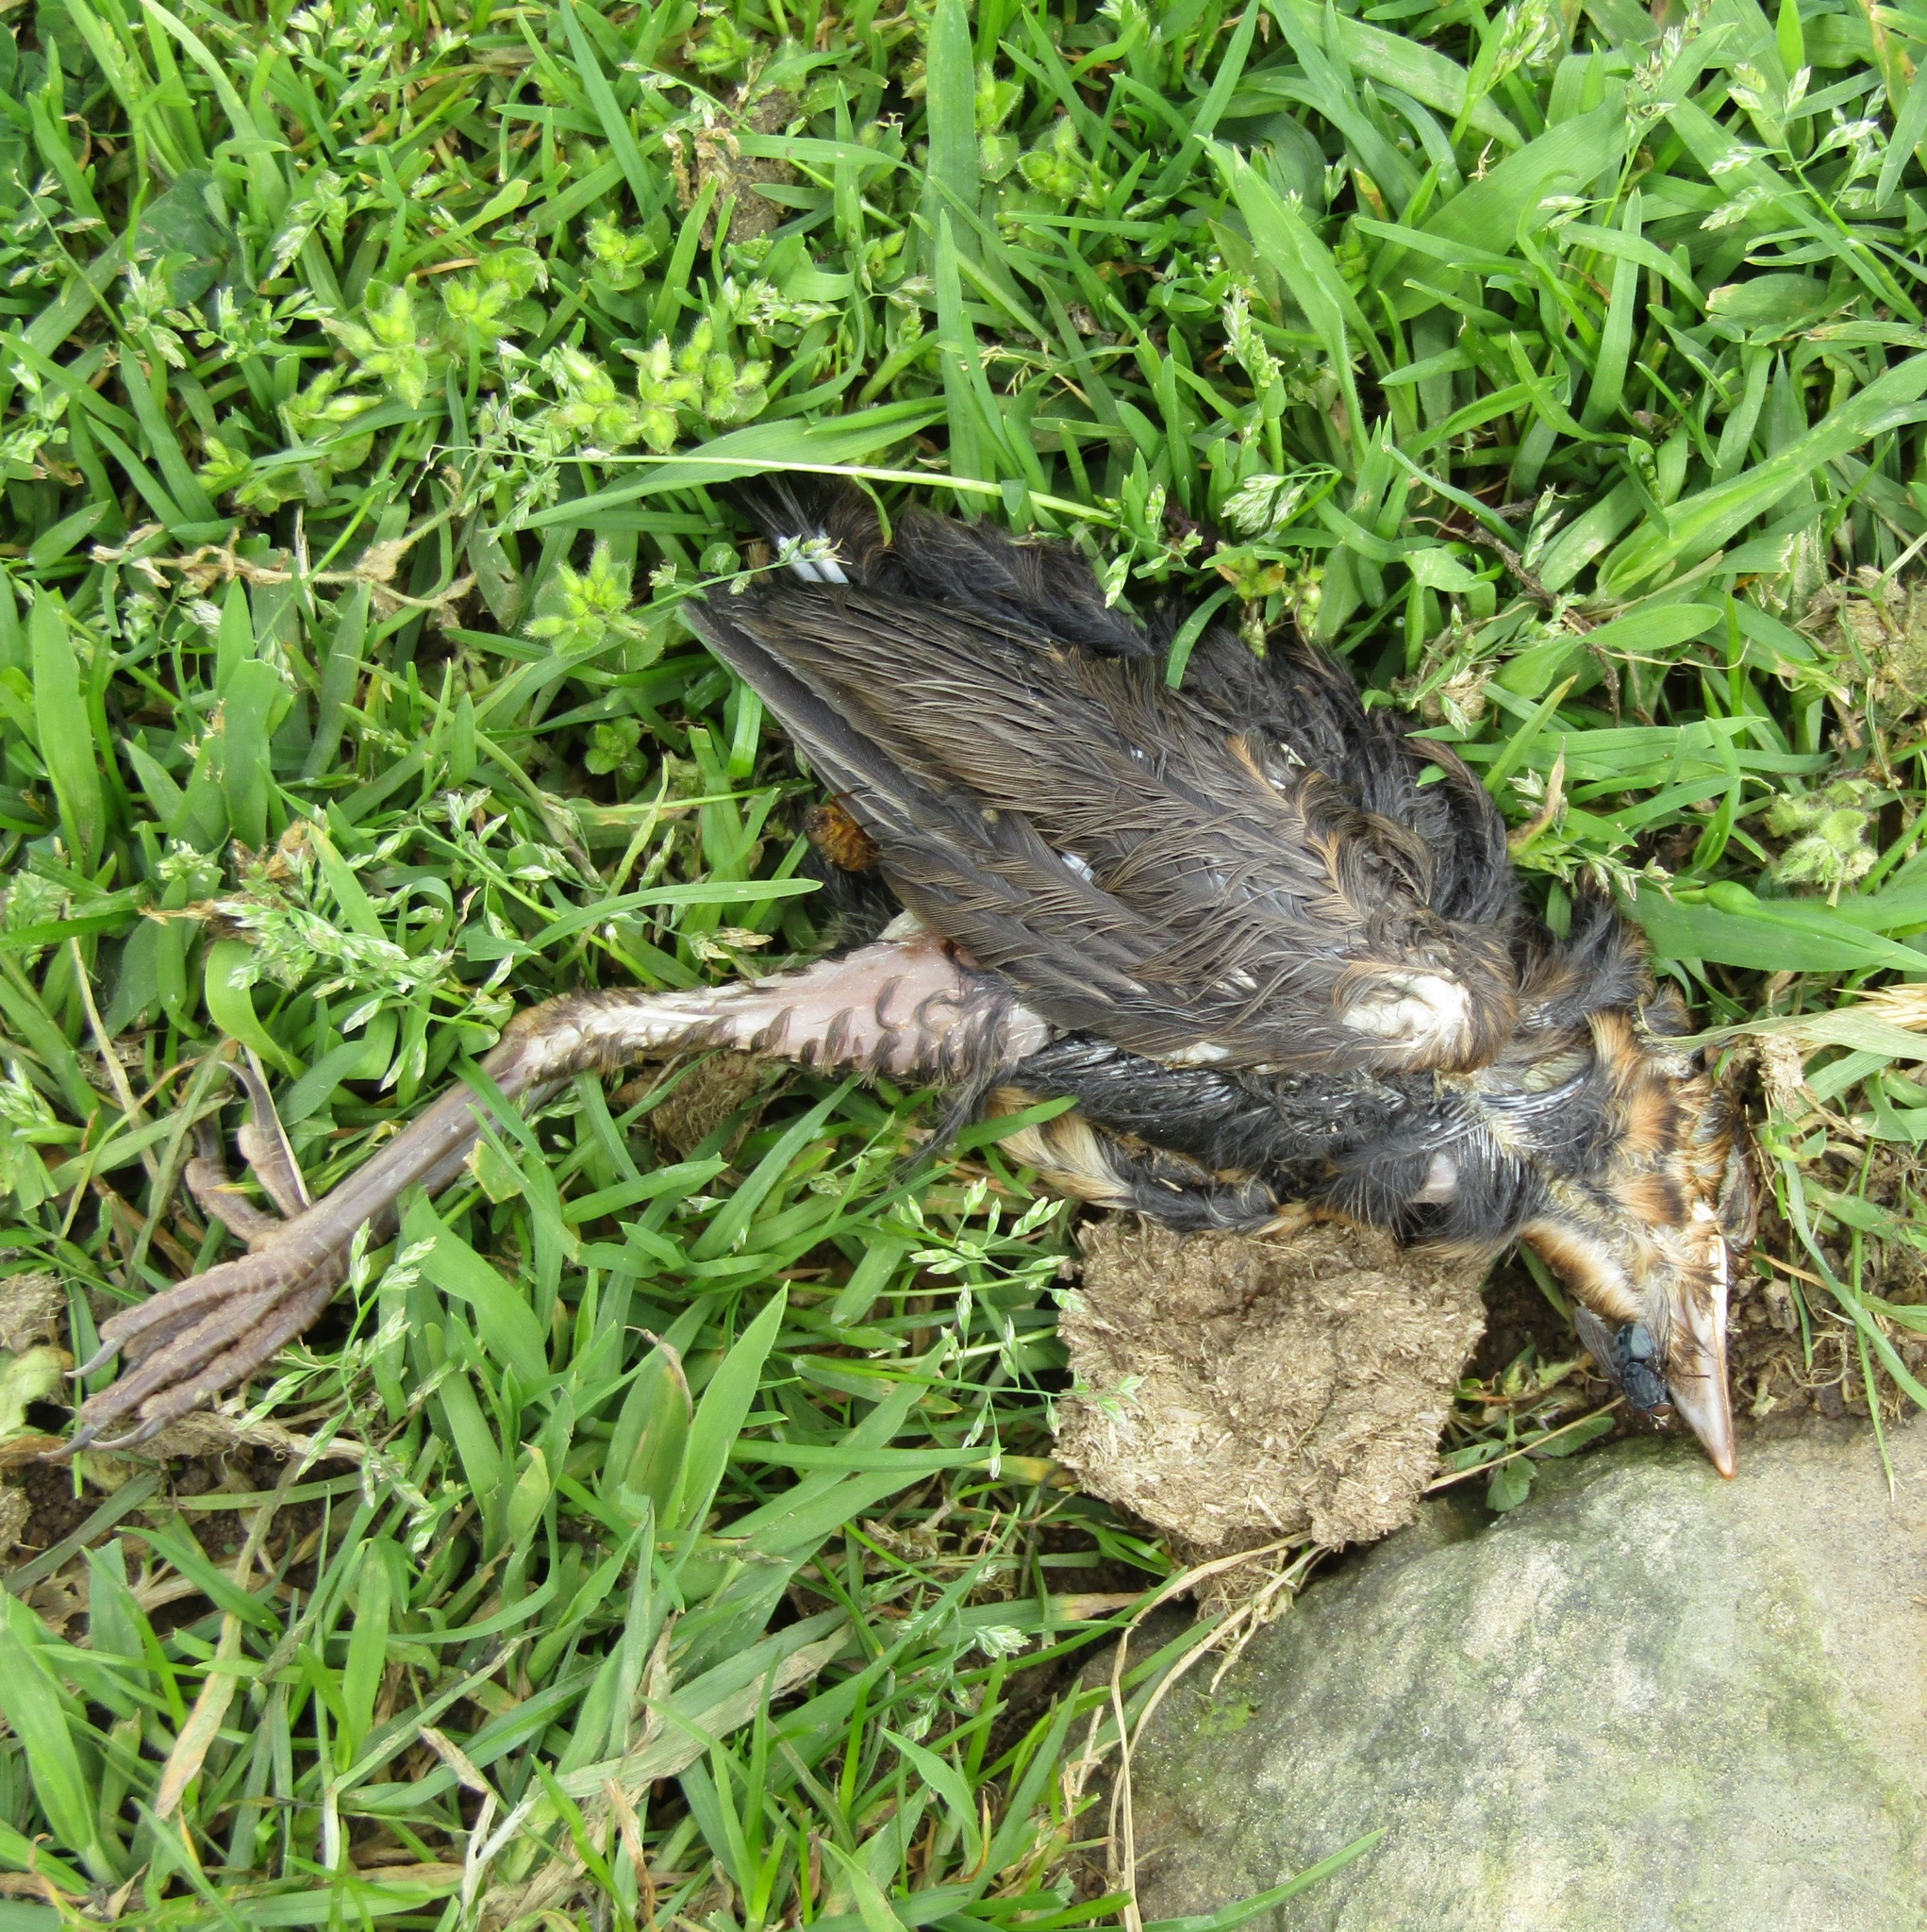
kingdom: Animalia
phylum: Chordata
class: Aves
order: Passeriformes
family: Turdidae
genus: Turdus
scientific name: Turdus philomelos
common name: Song thrush
